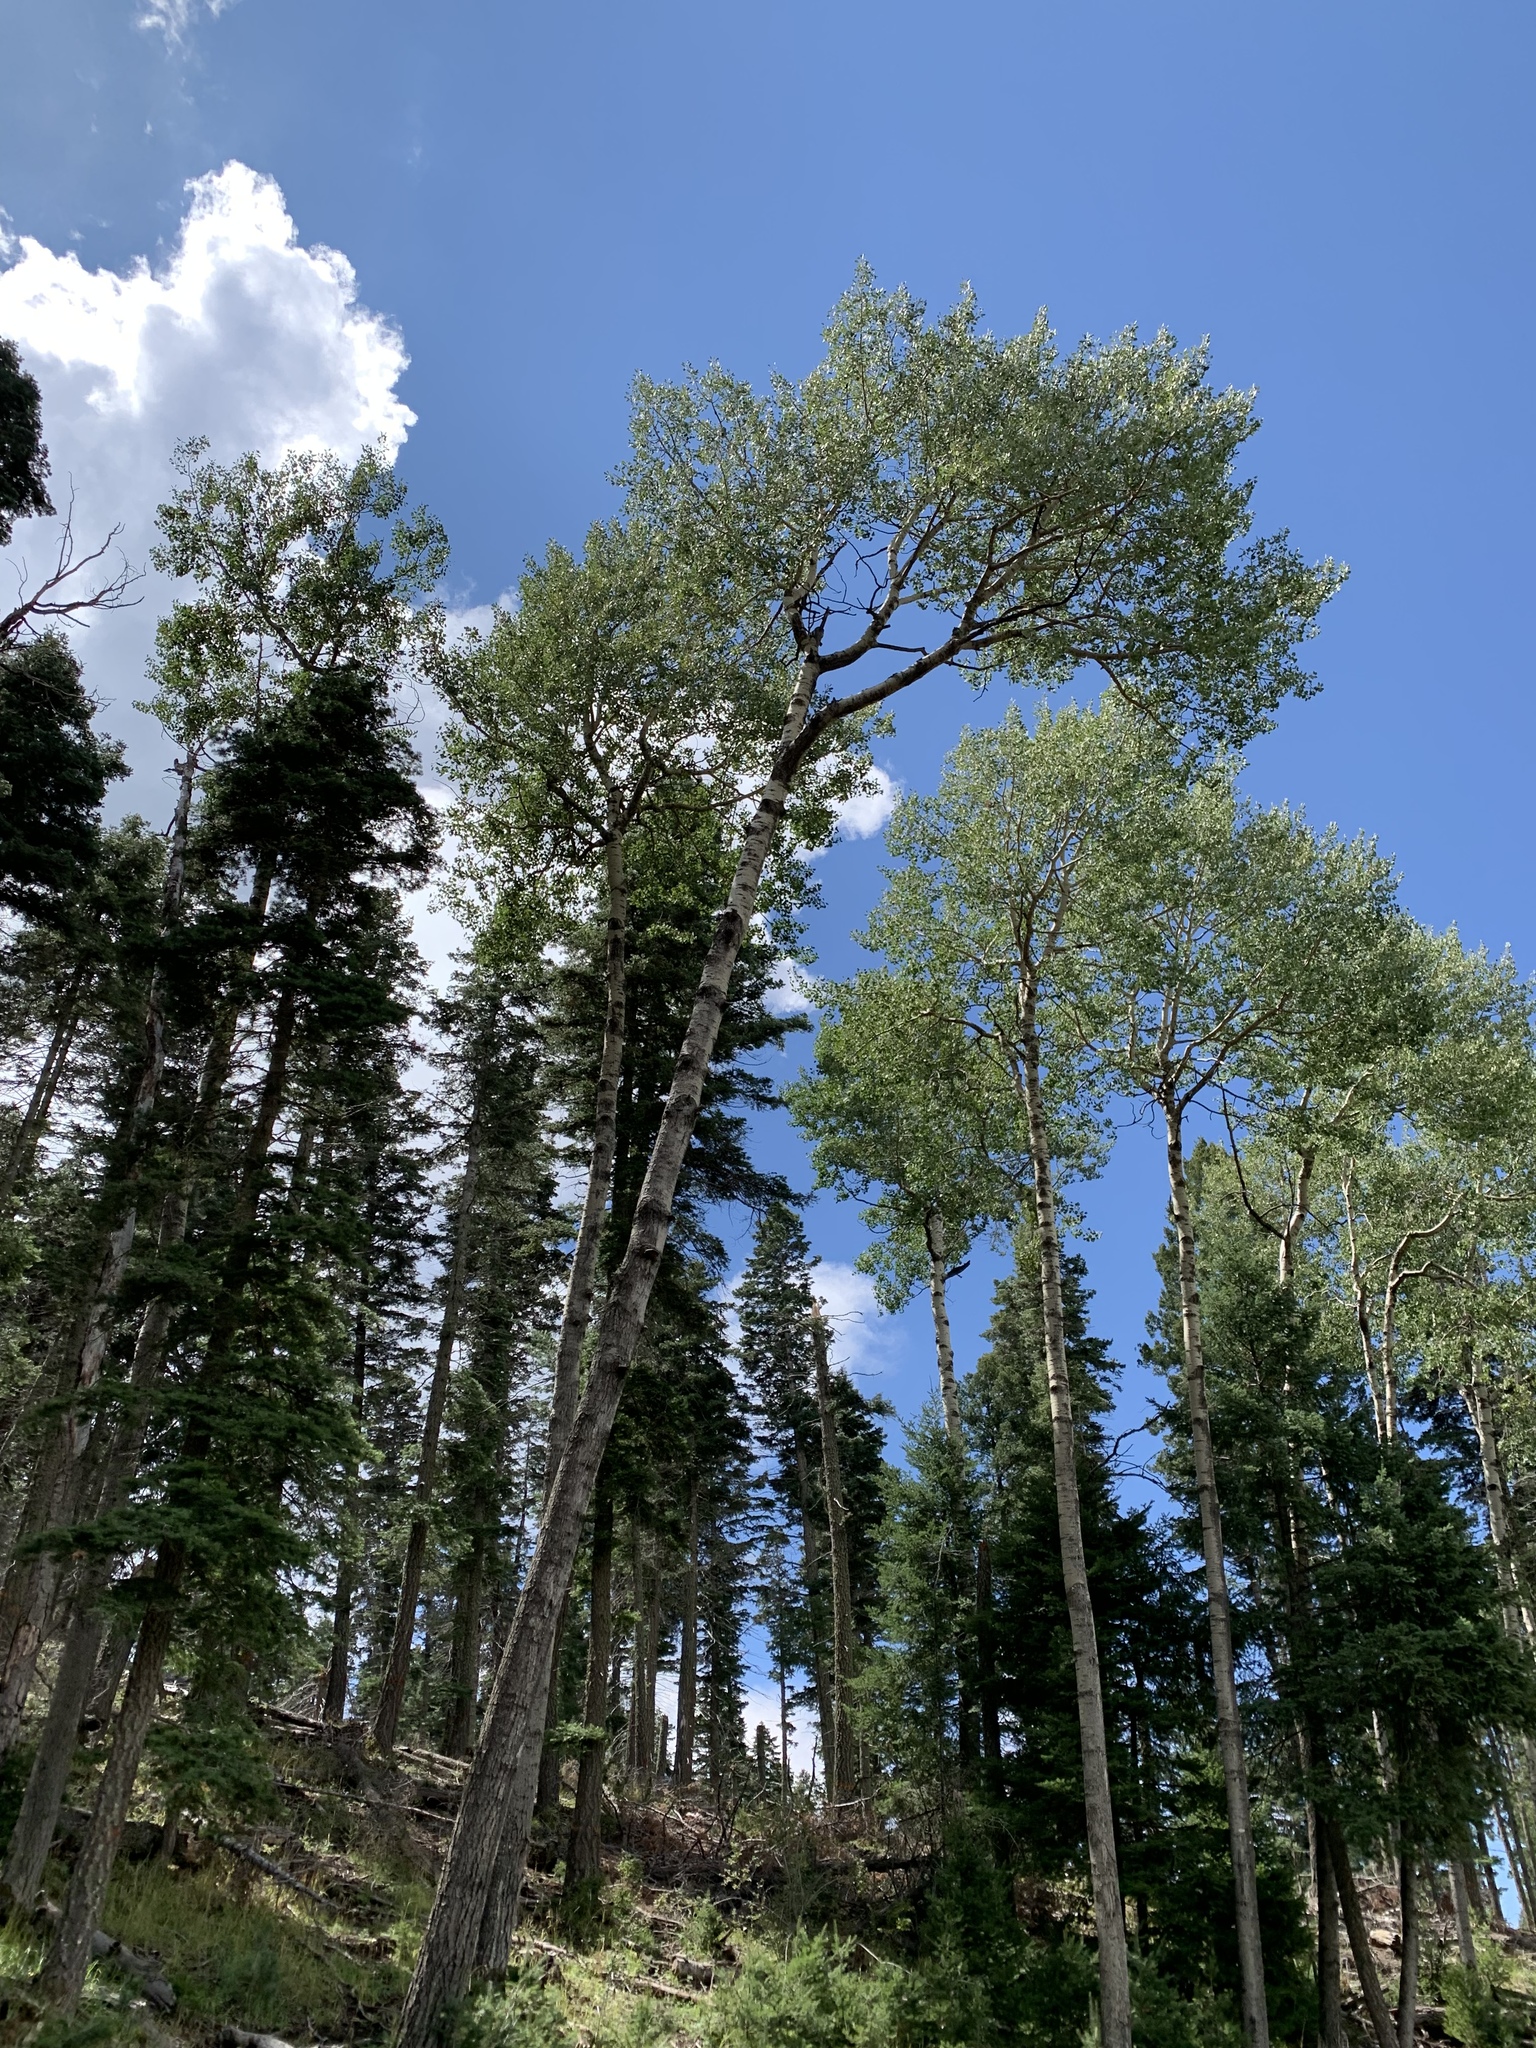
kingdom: Plantae
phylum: Tracheophyta
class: Magnoliopsida
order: Malpighiales
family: Salicaceae
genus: Populus
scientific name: Populus tremuloides
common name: Quaking aspen
